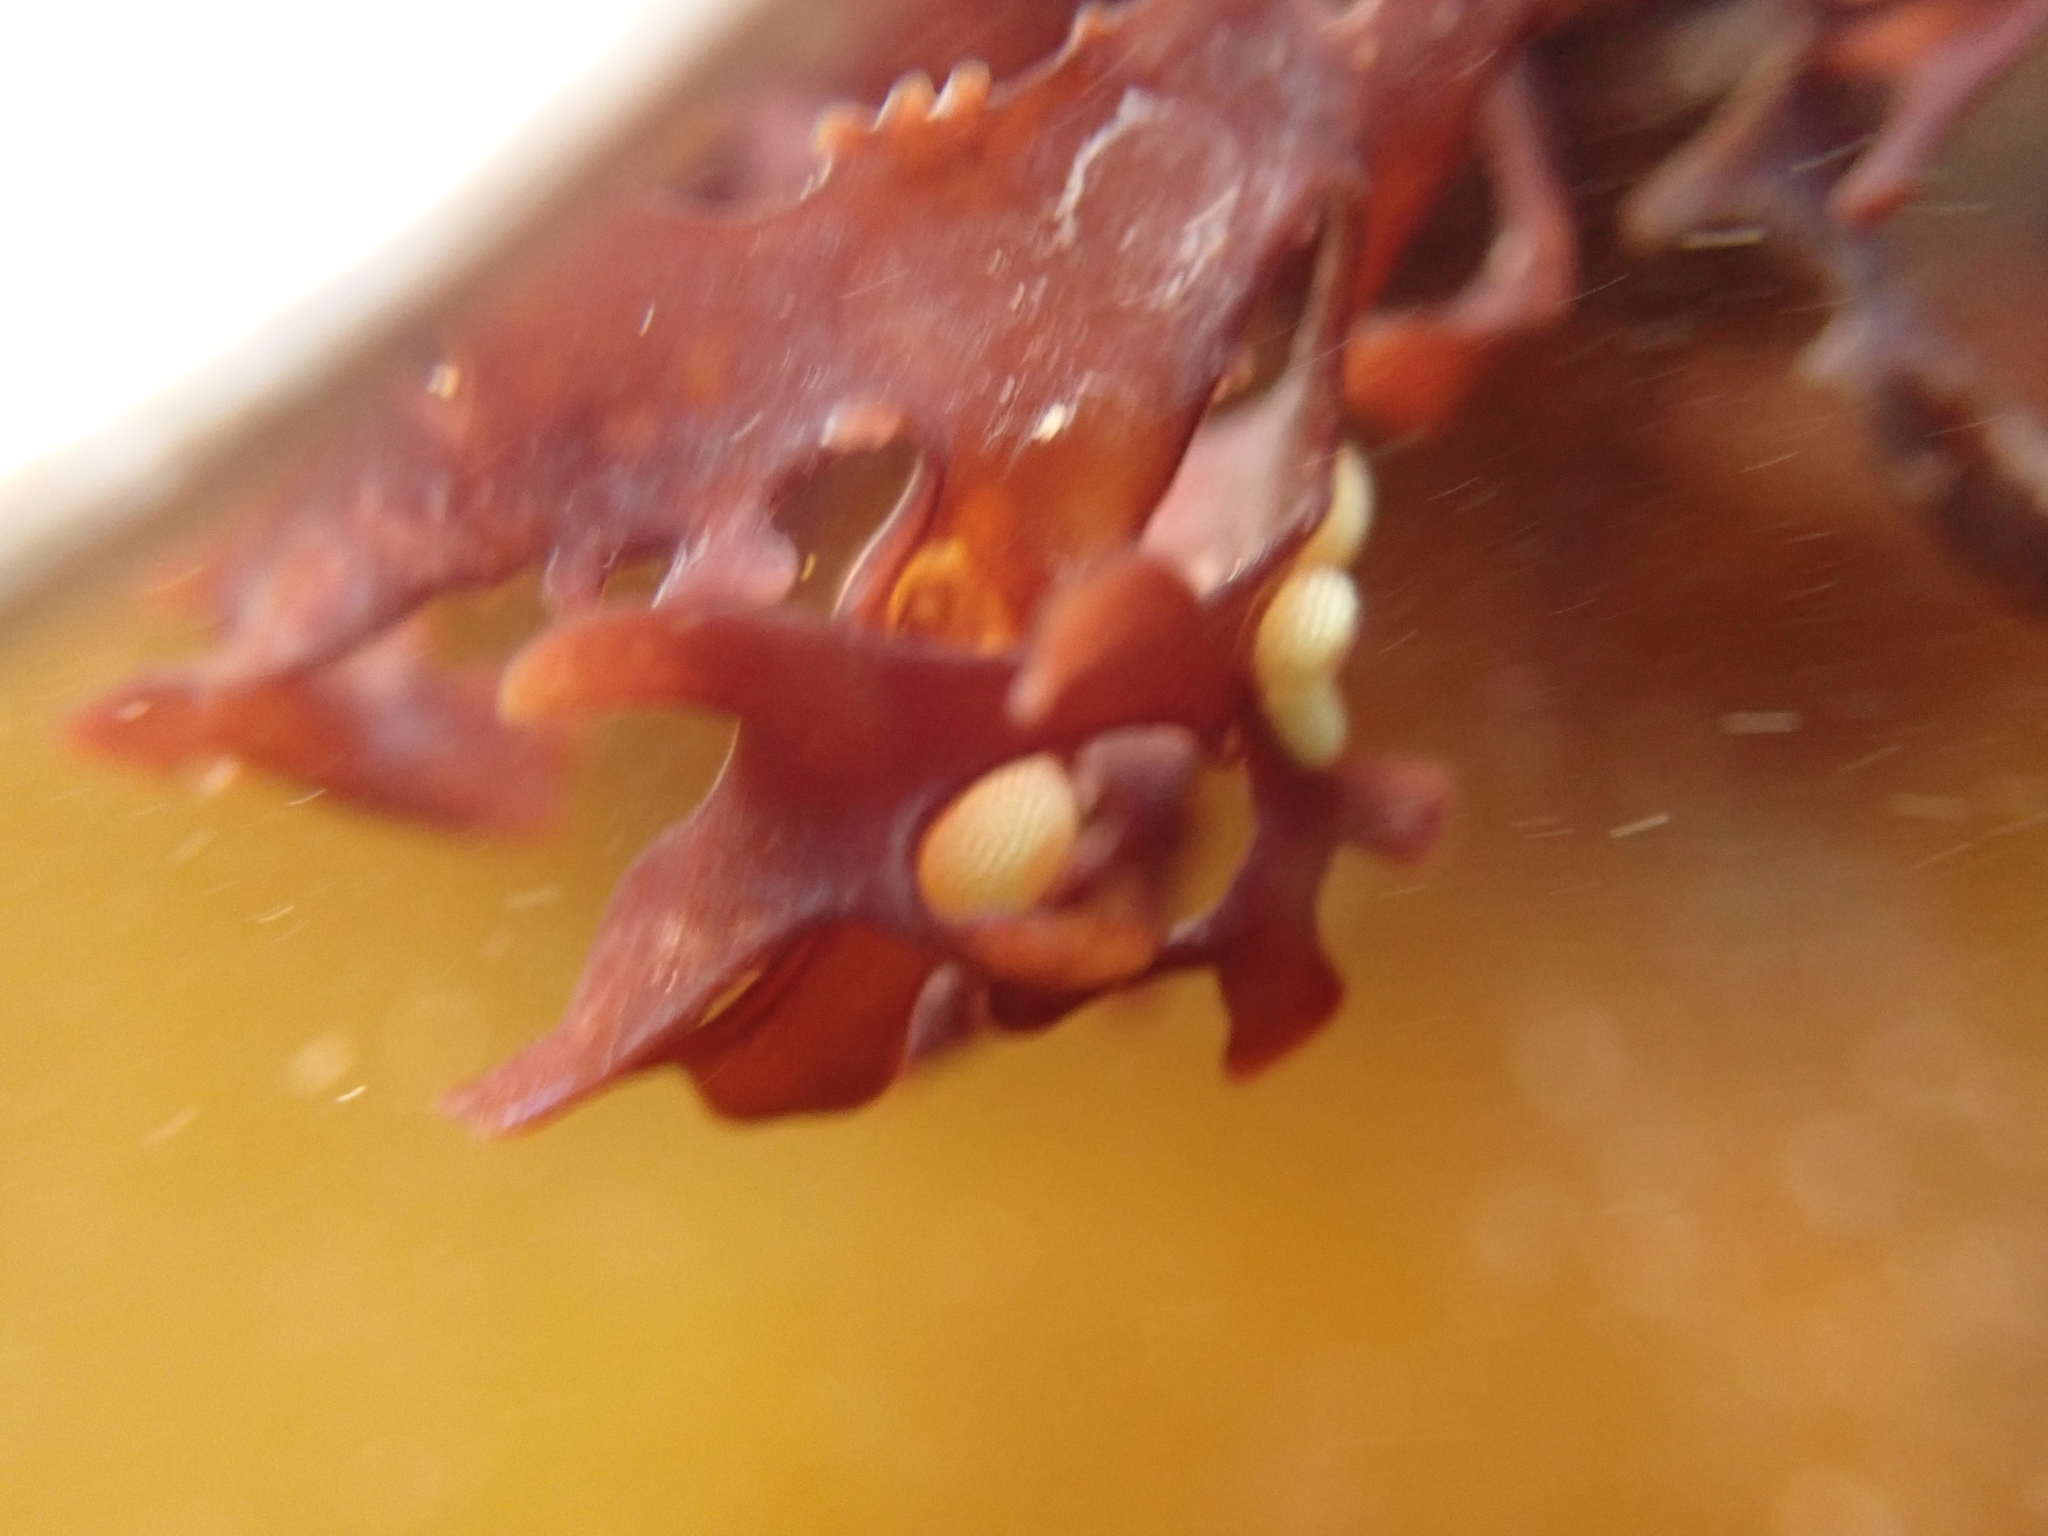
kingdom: Animalia
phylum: Mollusca
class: Gastropoda
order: Littorinimorpha
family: Littorinidae
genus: Lacuna
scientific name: Lacuna vincta
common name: Banded chink shell
